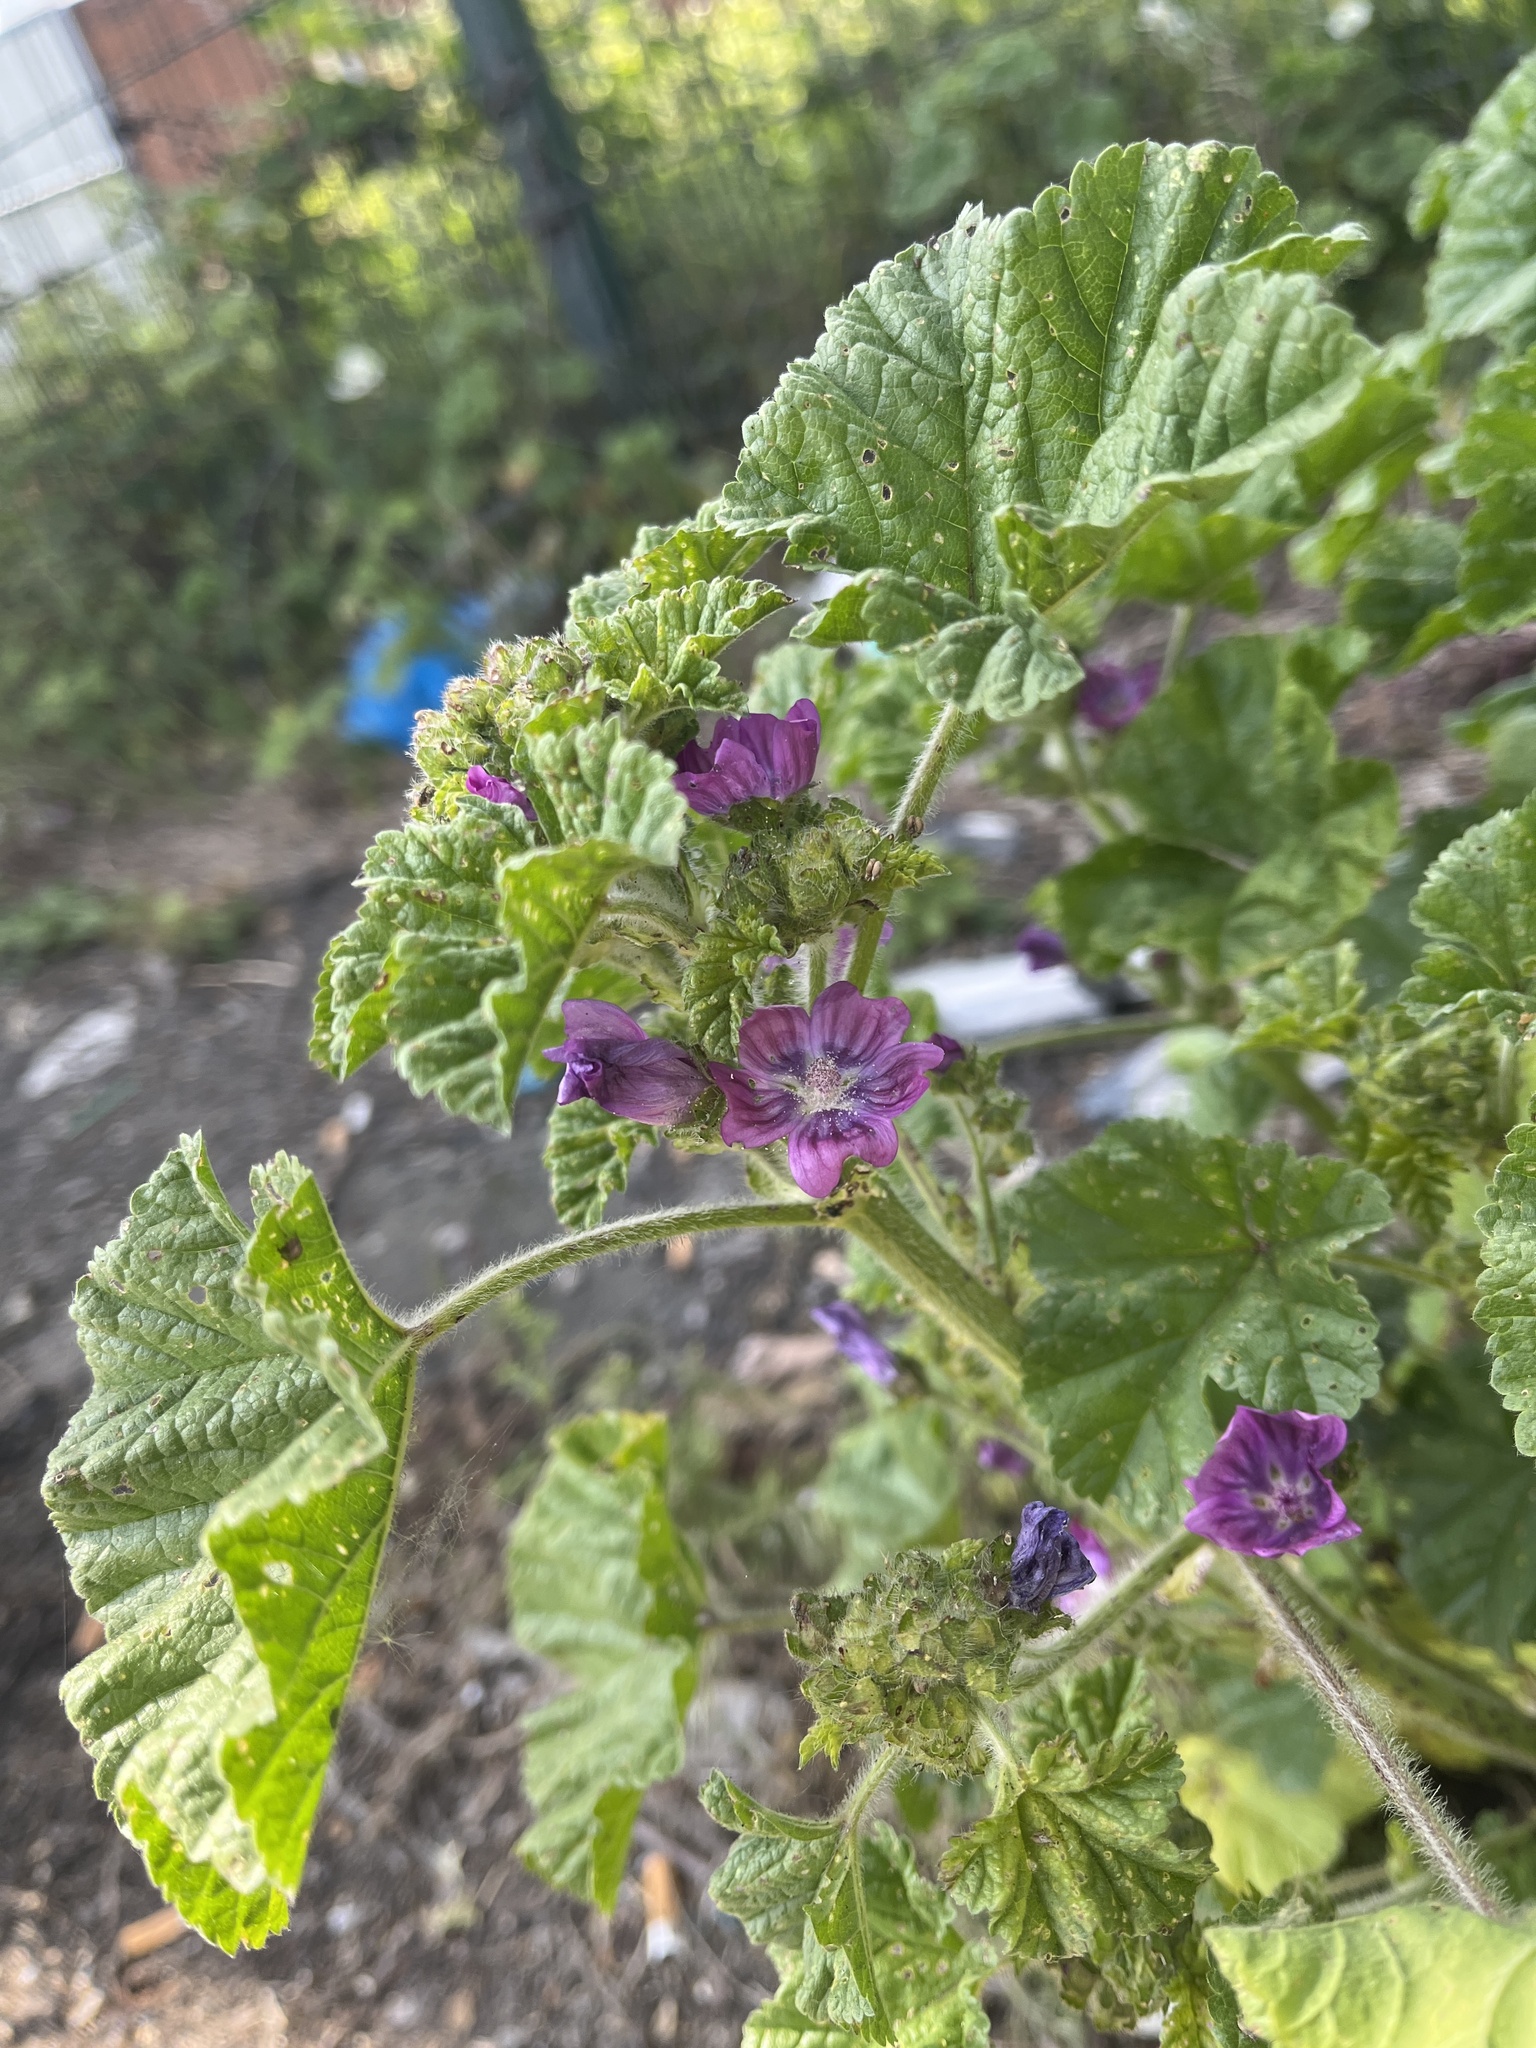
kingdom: Plantae
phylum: Tracheophyta
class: Magnoliopsida
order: Malvales
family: Malvaceae
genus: Malva
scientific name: Malva sylvestris
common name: Common mallow
